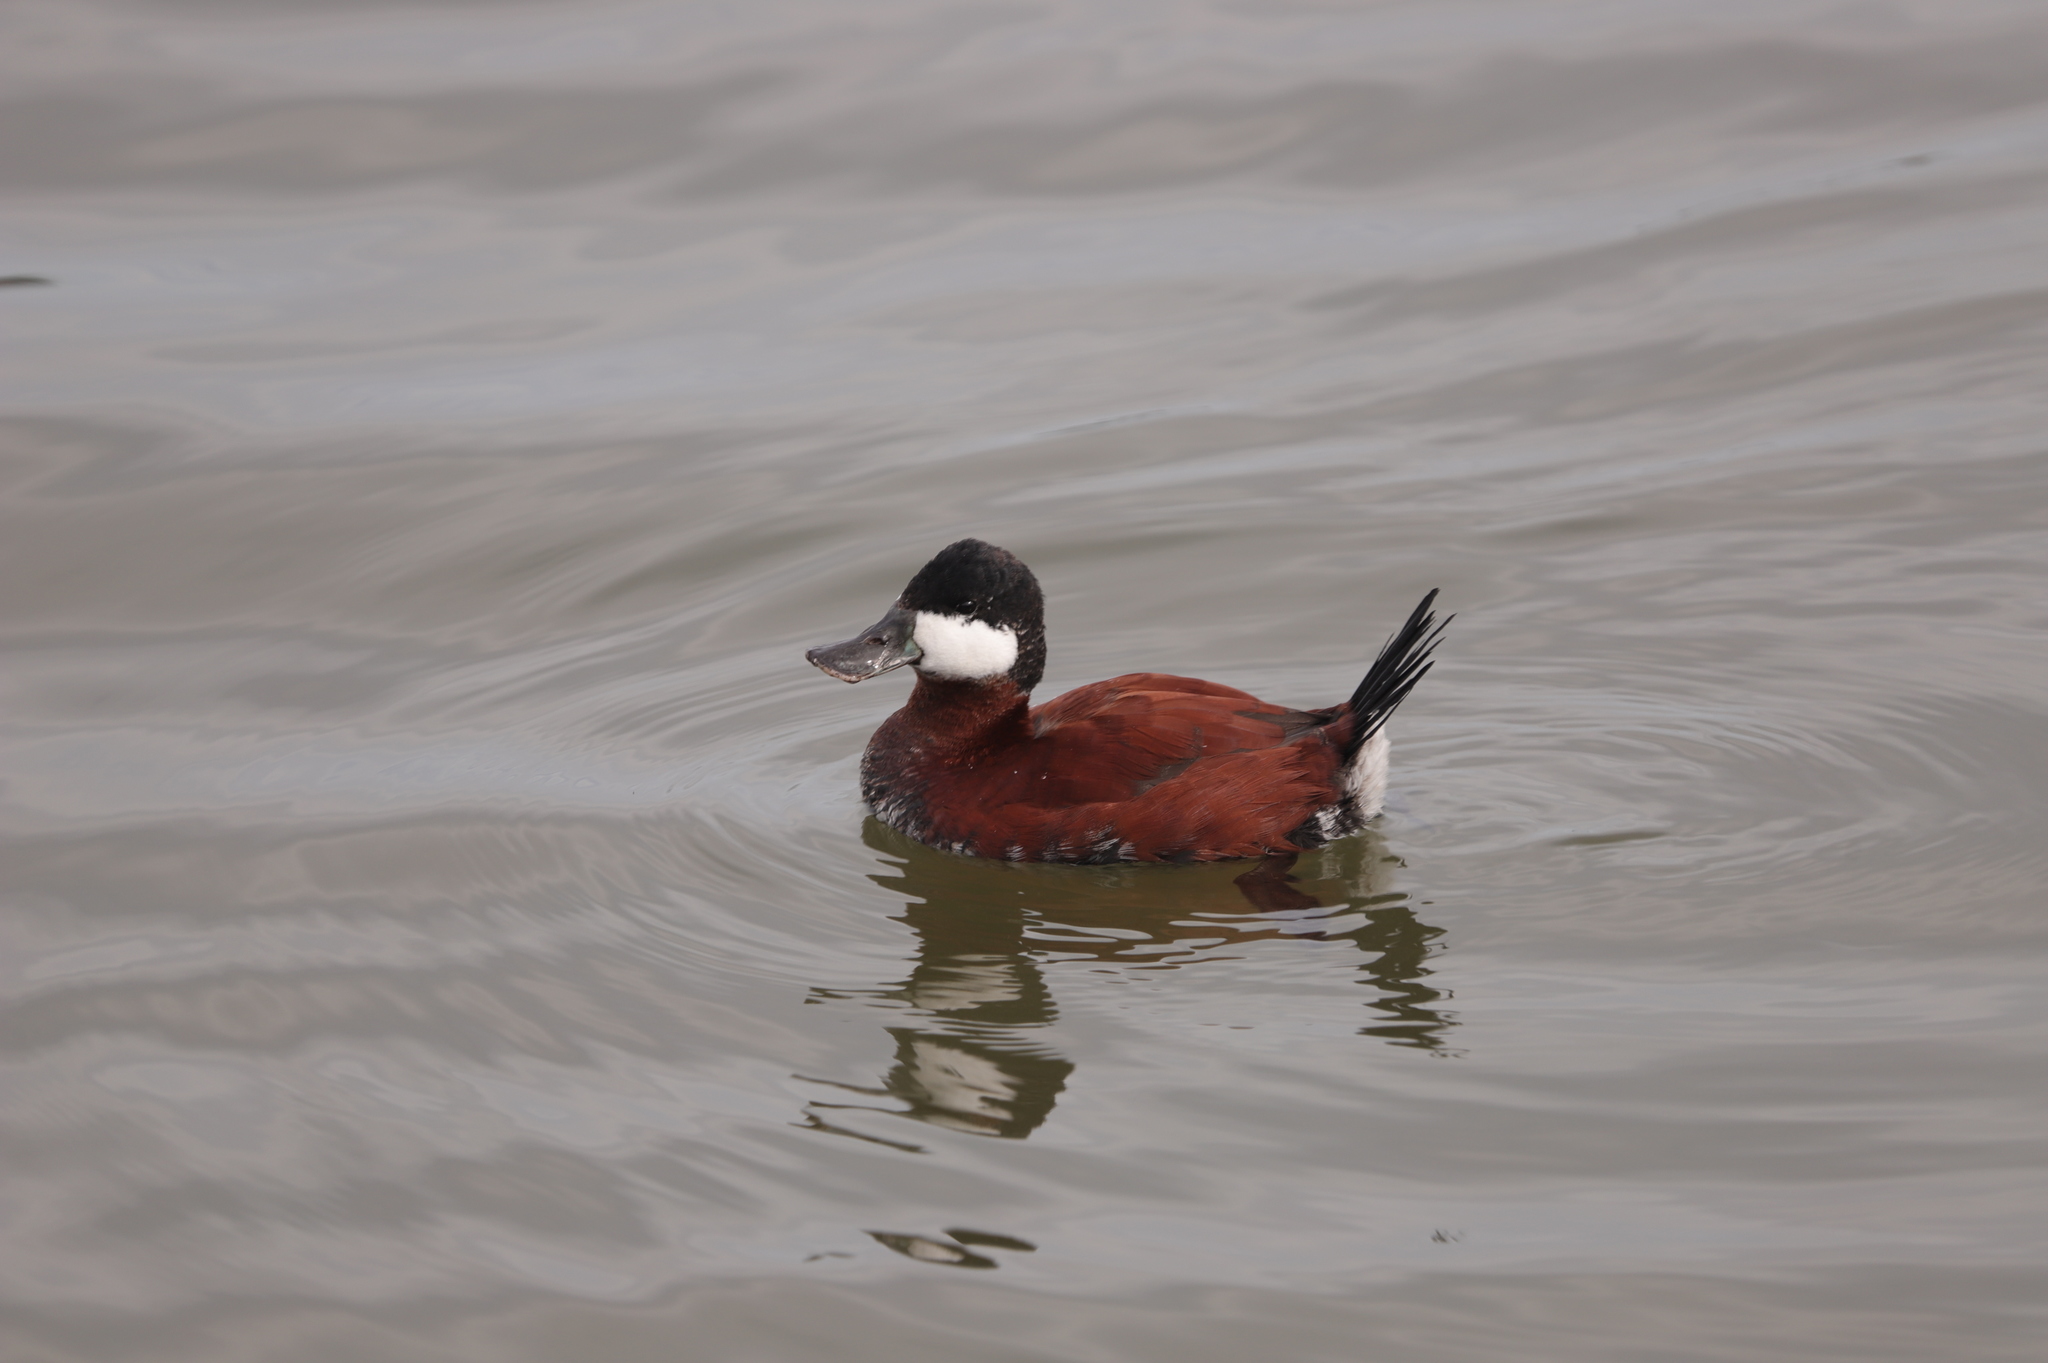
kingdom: Animalia
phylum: Chordata
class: Aves
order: Anseriformes
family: Anatidae
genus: Oxyura
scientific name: Oxyura jamaicensis
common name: Ruddy duck
